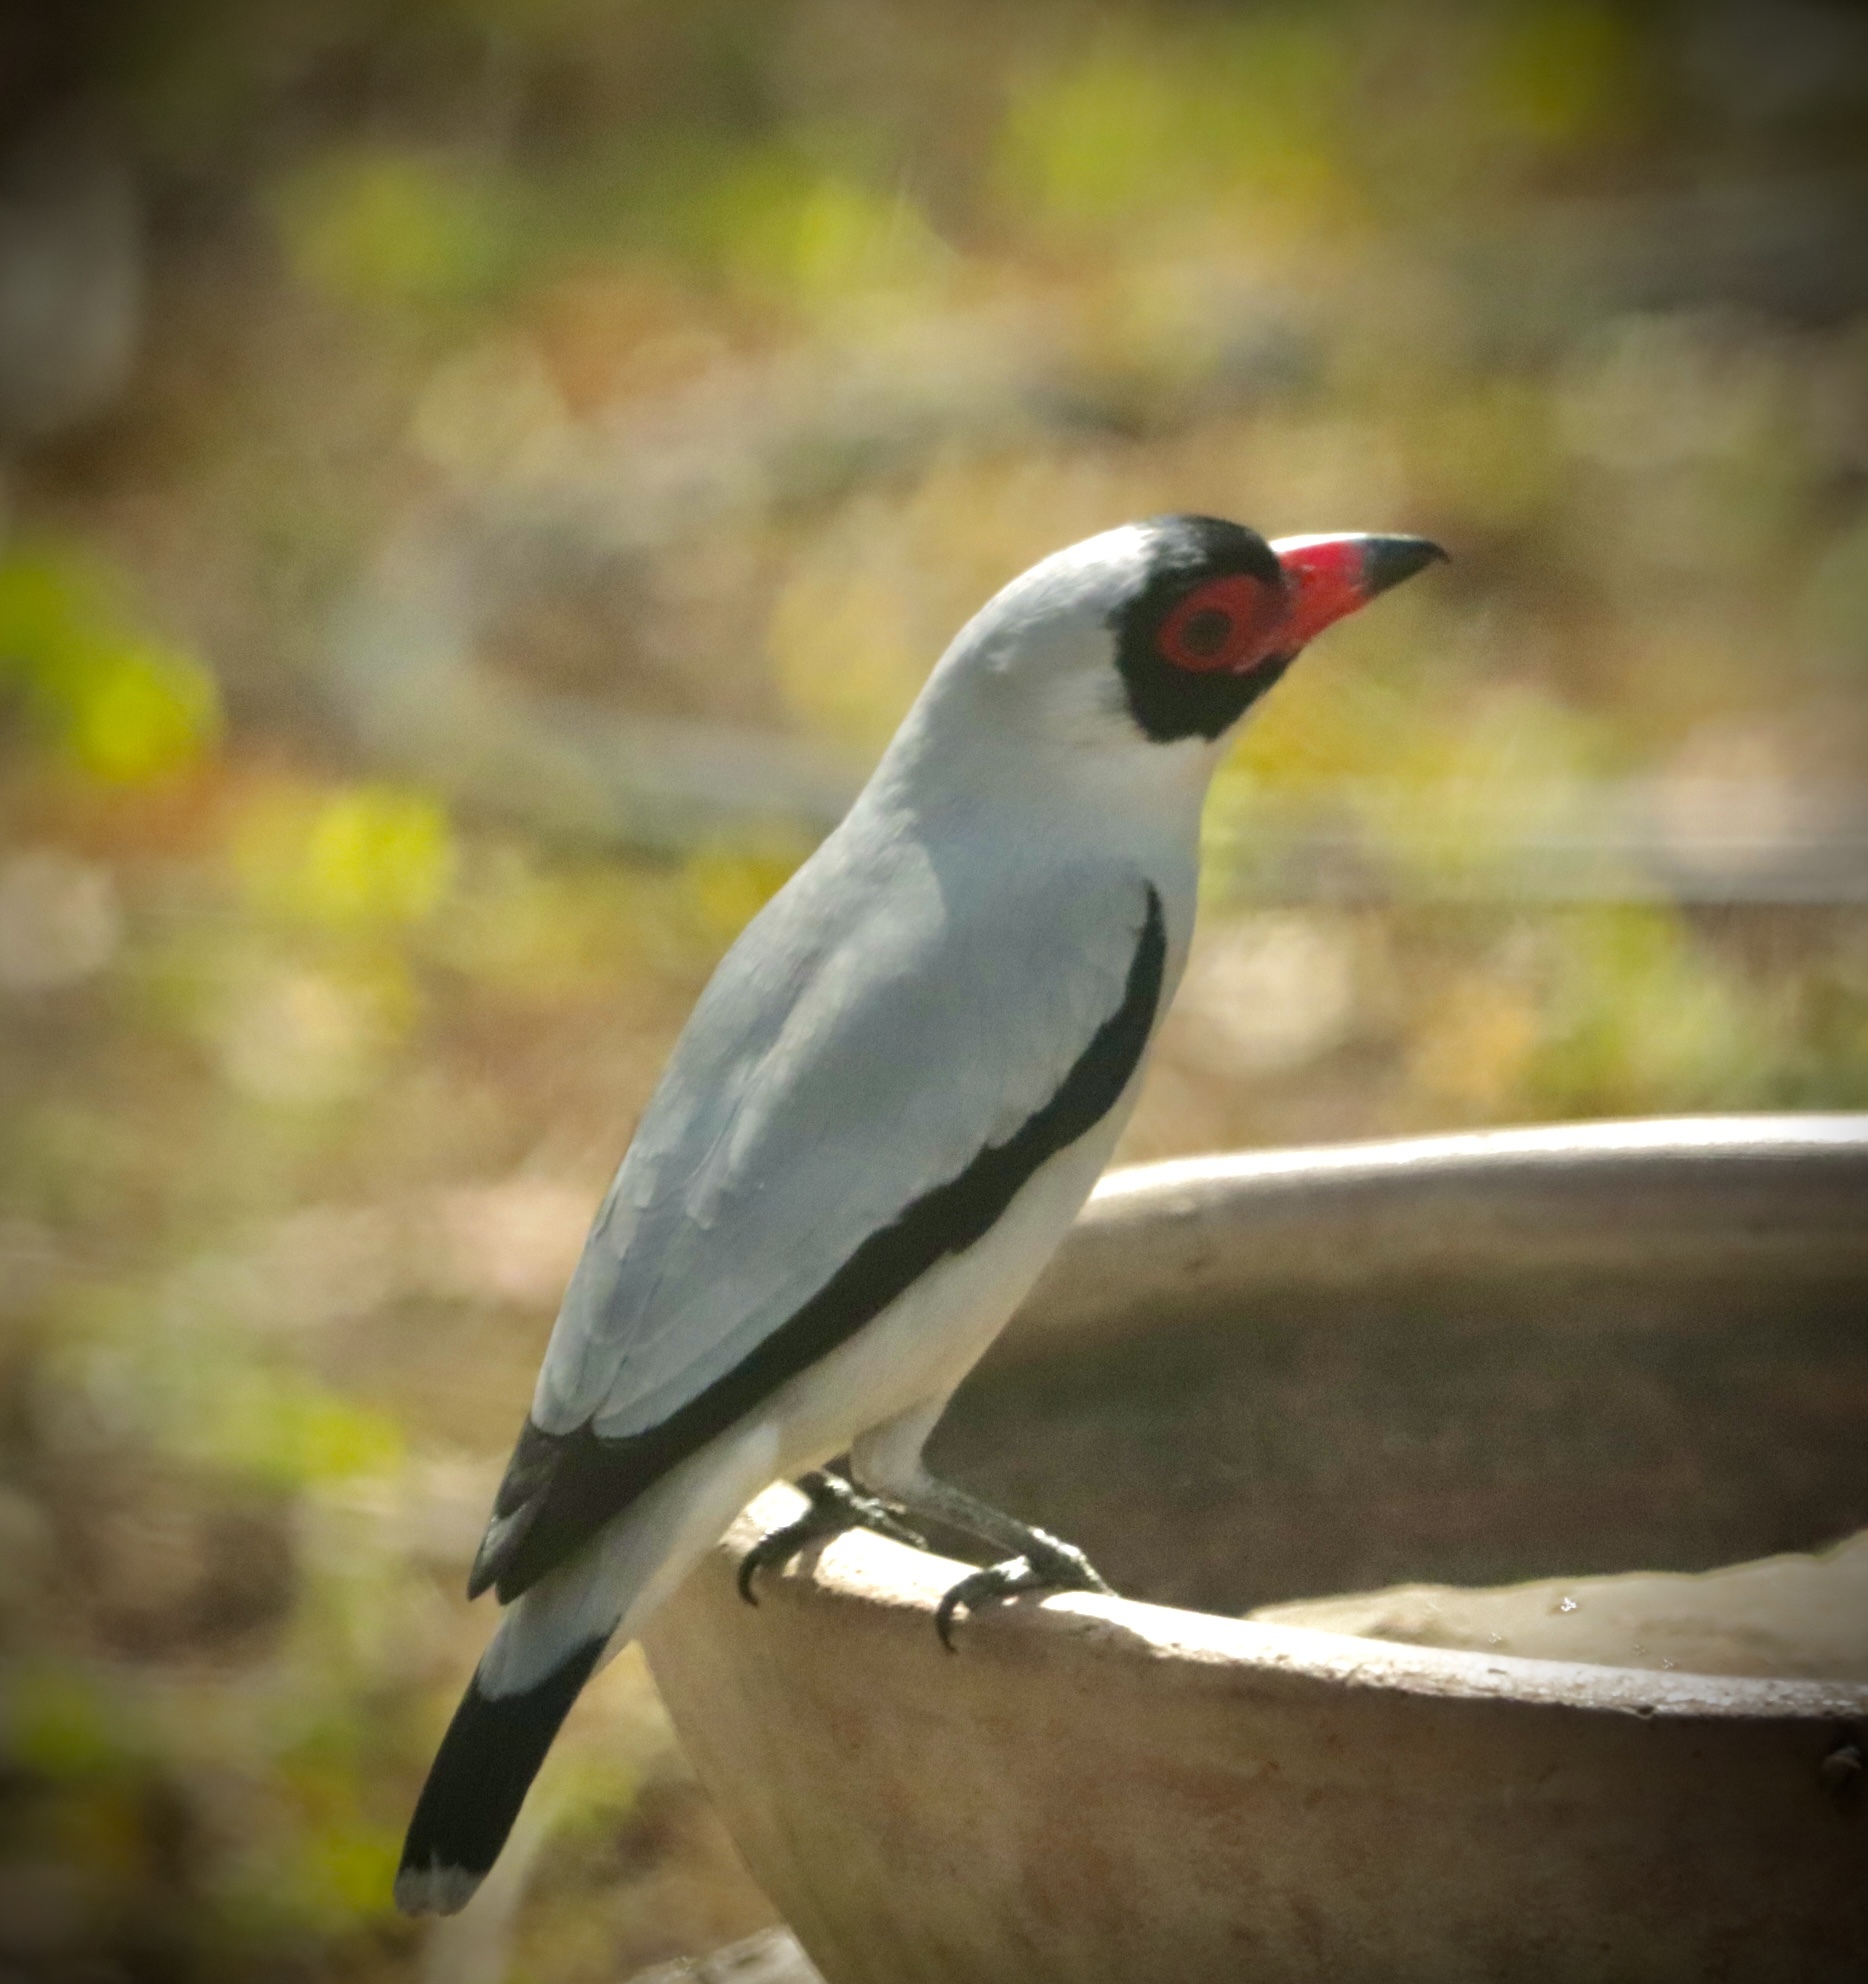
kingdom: Animalia
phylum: Chordata
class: Aves
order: Passeriformes
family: Cotingidae
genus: Tityra
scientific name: Tityra semifasciata
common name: Masked tityra
